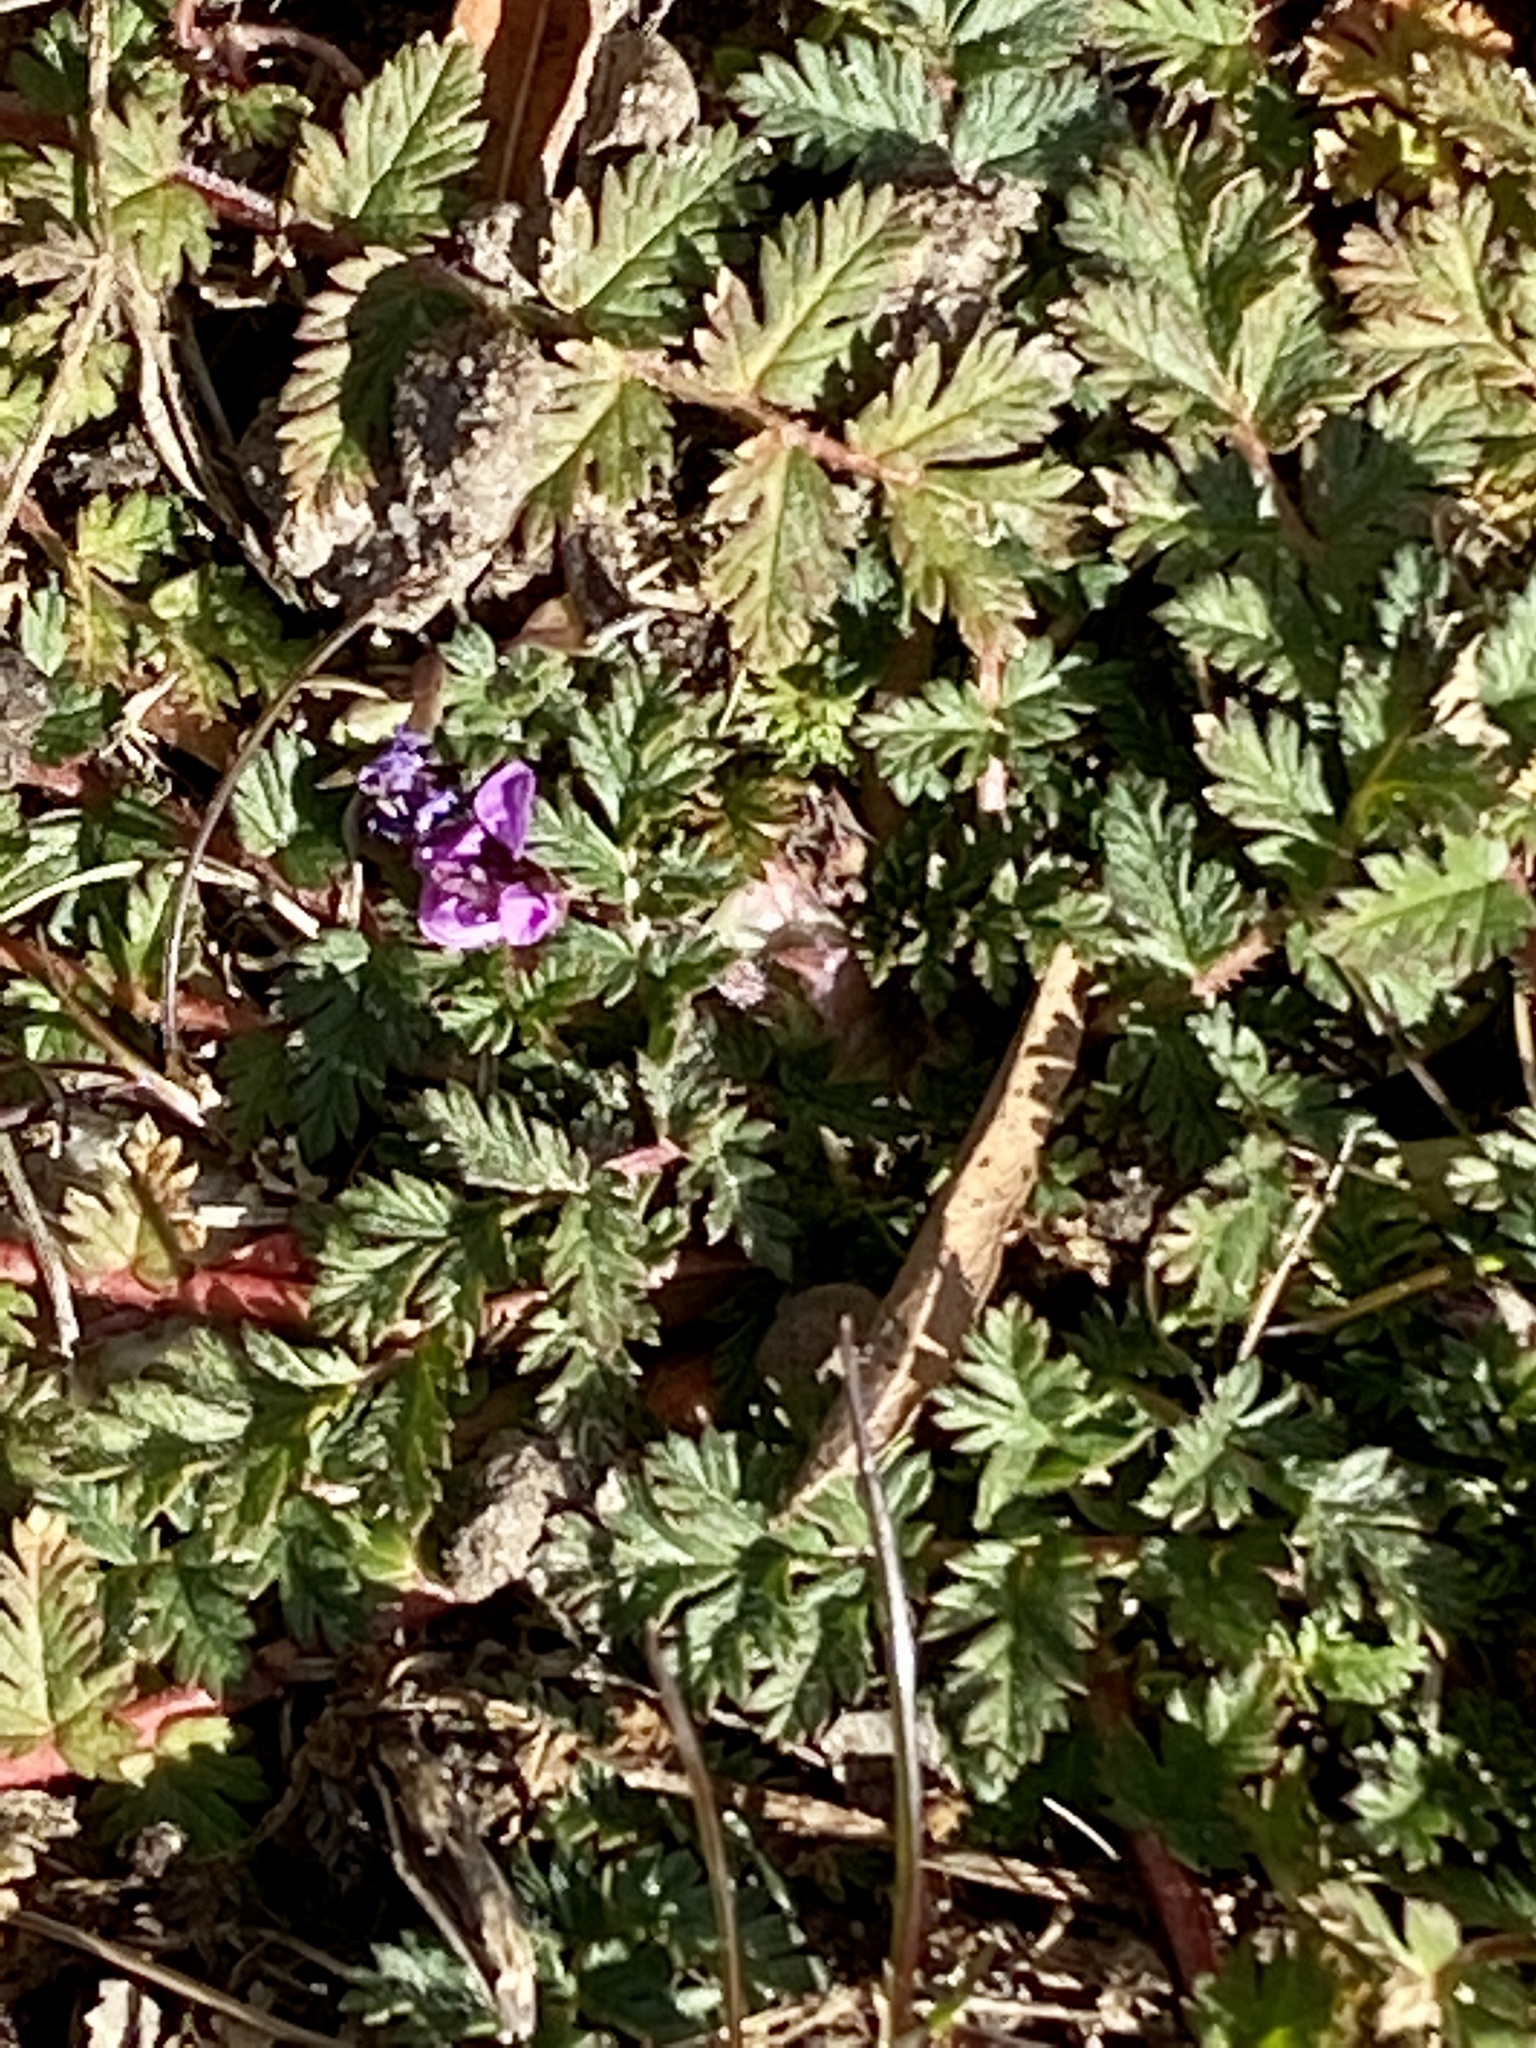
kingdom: Plantae
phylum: Tracheophyta
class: Magnoliopsida
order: Geraniales
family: Geraniaceae
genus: Erodium
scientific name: Erodium cicutarium
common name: Common stork's-bill
